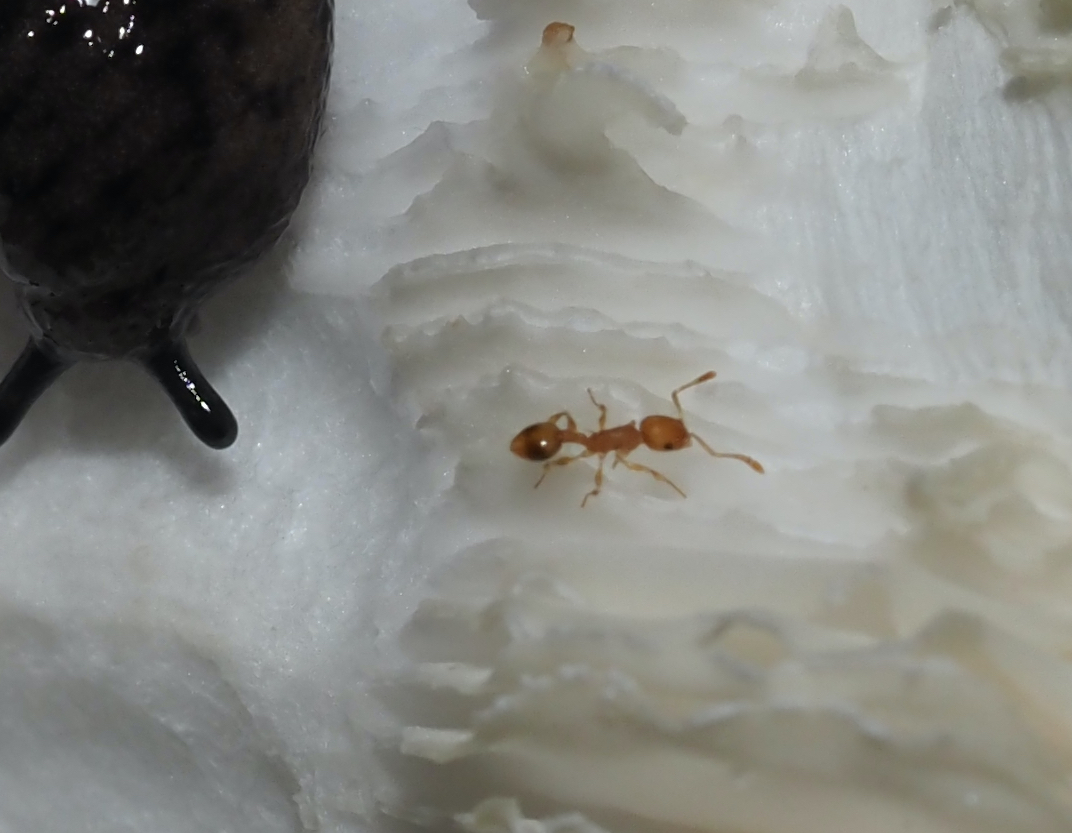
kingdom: Animalia
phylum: Arthropoda
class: Insecta
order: Hymenoptera
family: Formicidae
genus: Temnothorax
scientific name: Temnothorax curvispinosus
